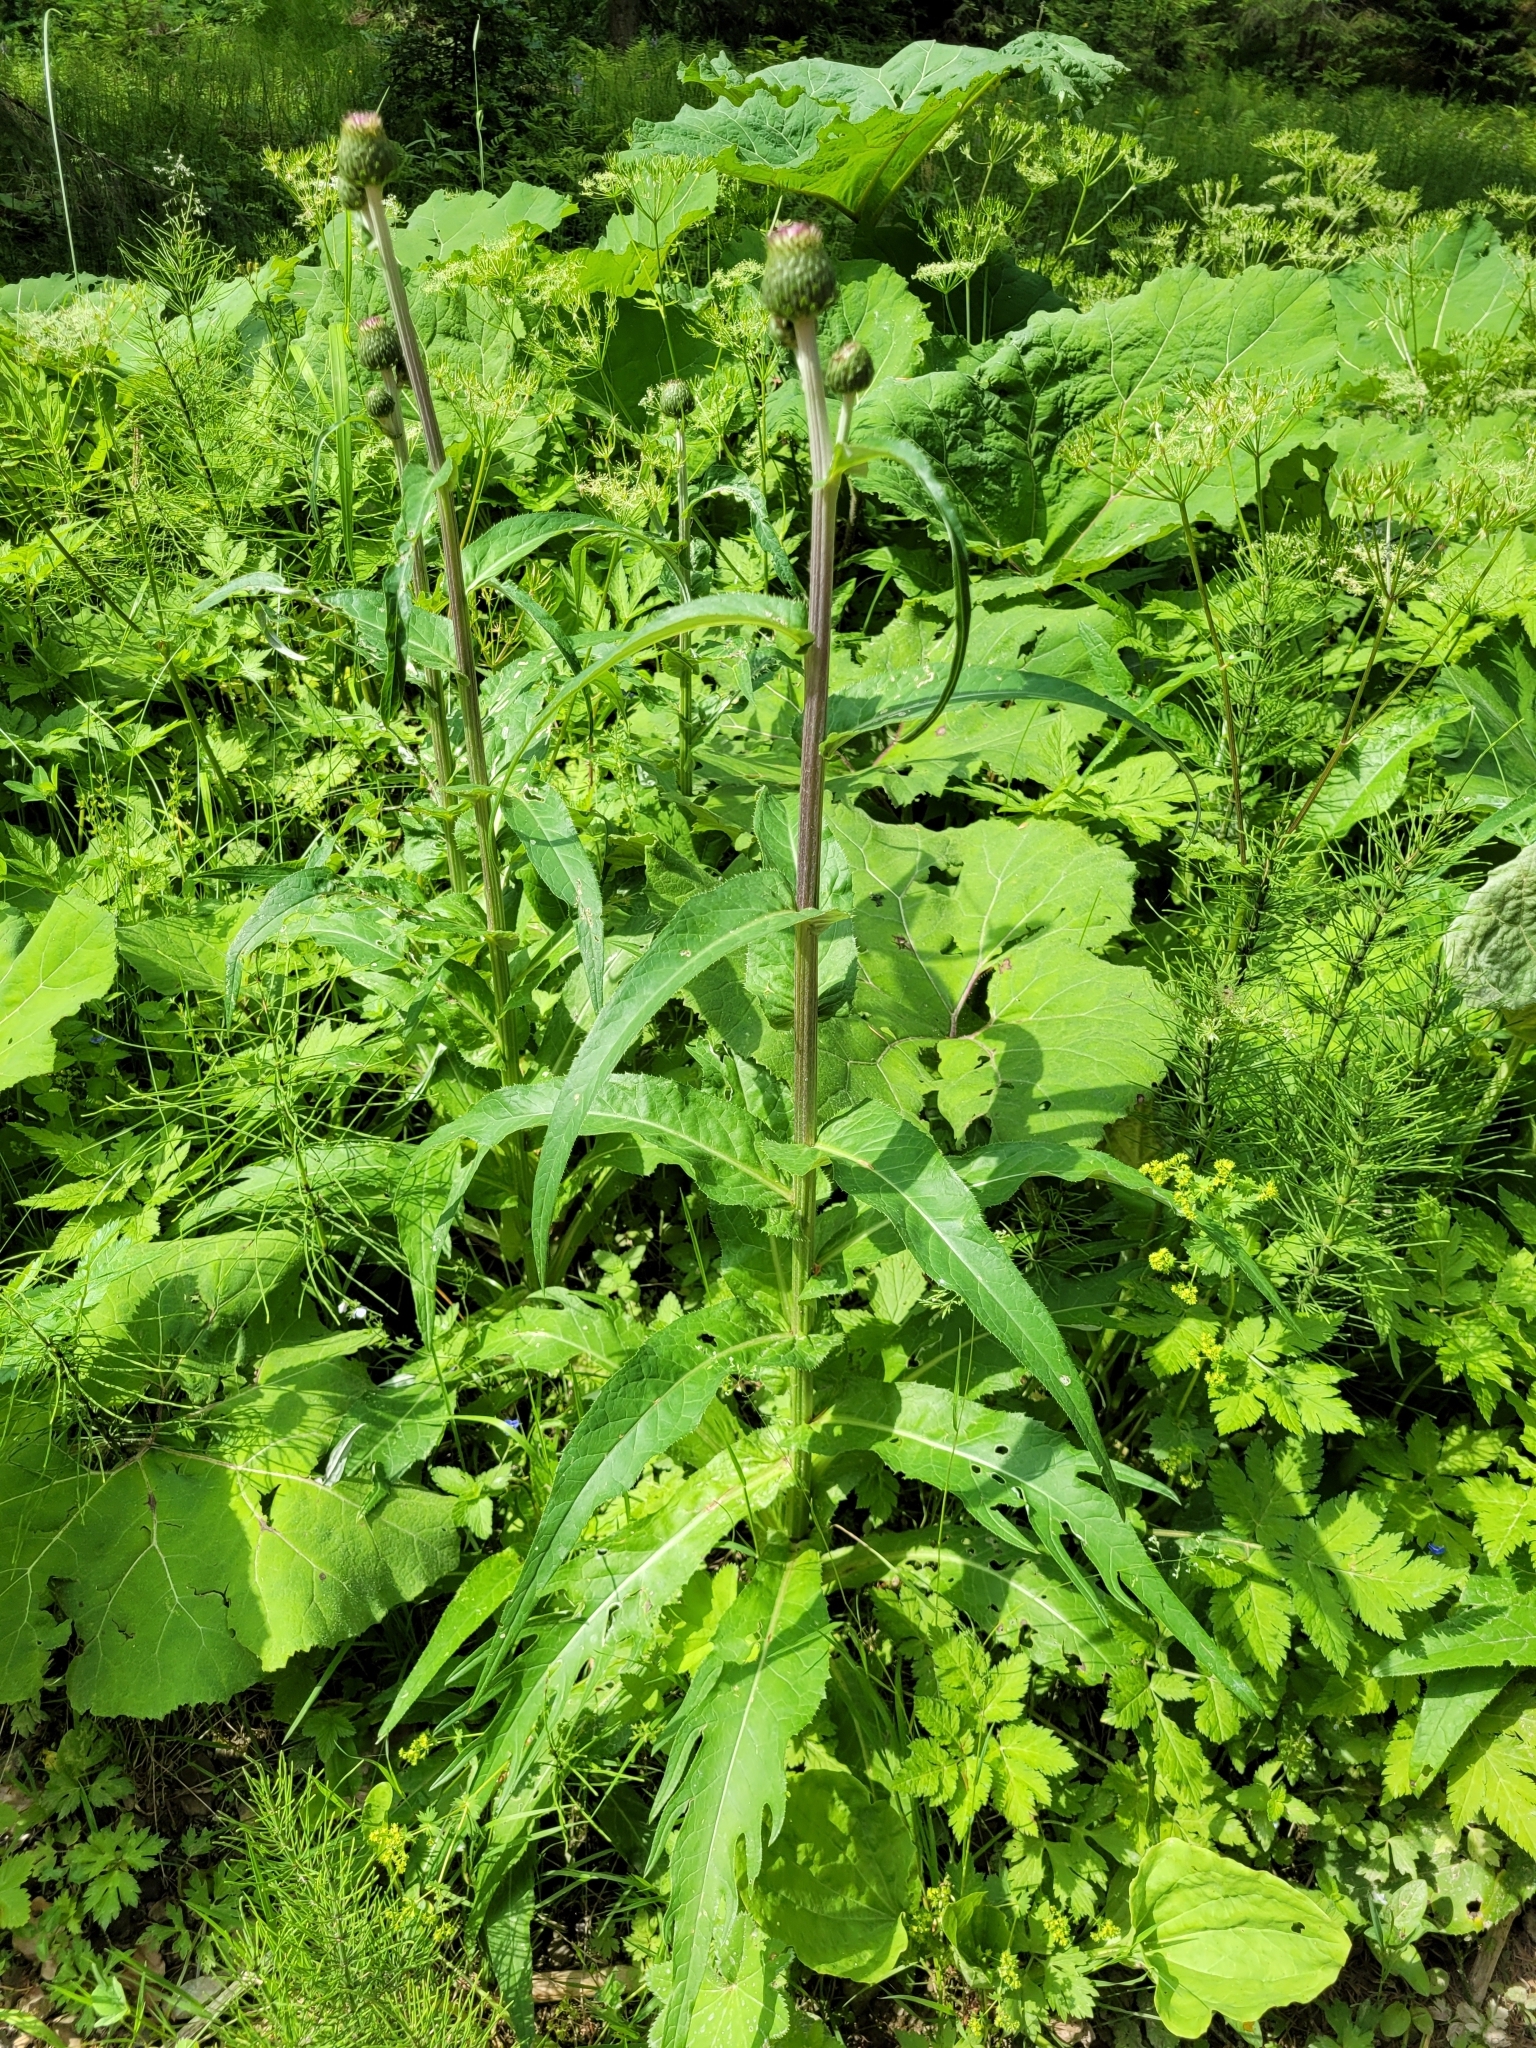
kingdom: Plantae
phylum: Tracheophyta
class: Magnoliopsida
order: Asterales
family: Asteraceae
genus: Cirsium
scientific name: Cirsium heterophyllum
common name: Melancholy thistle
